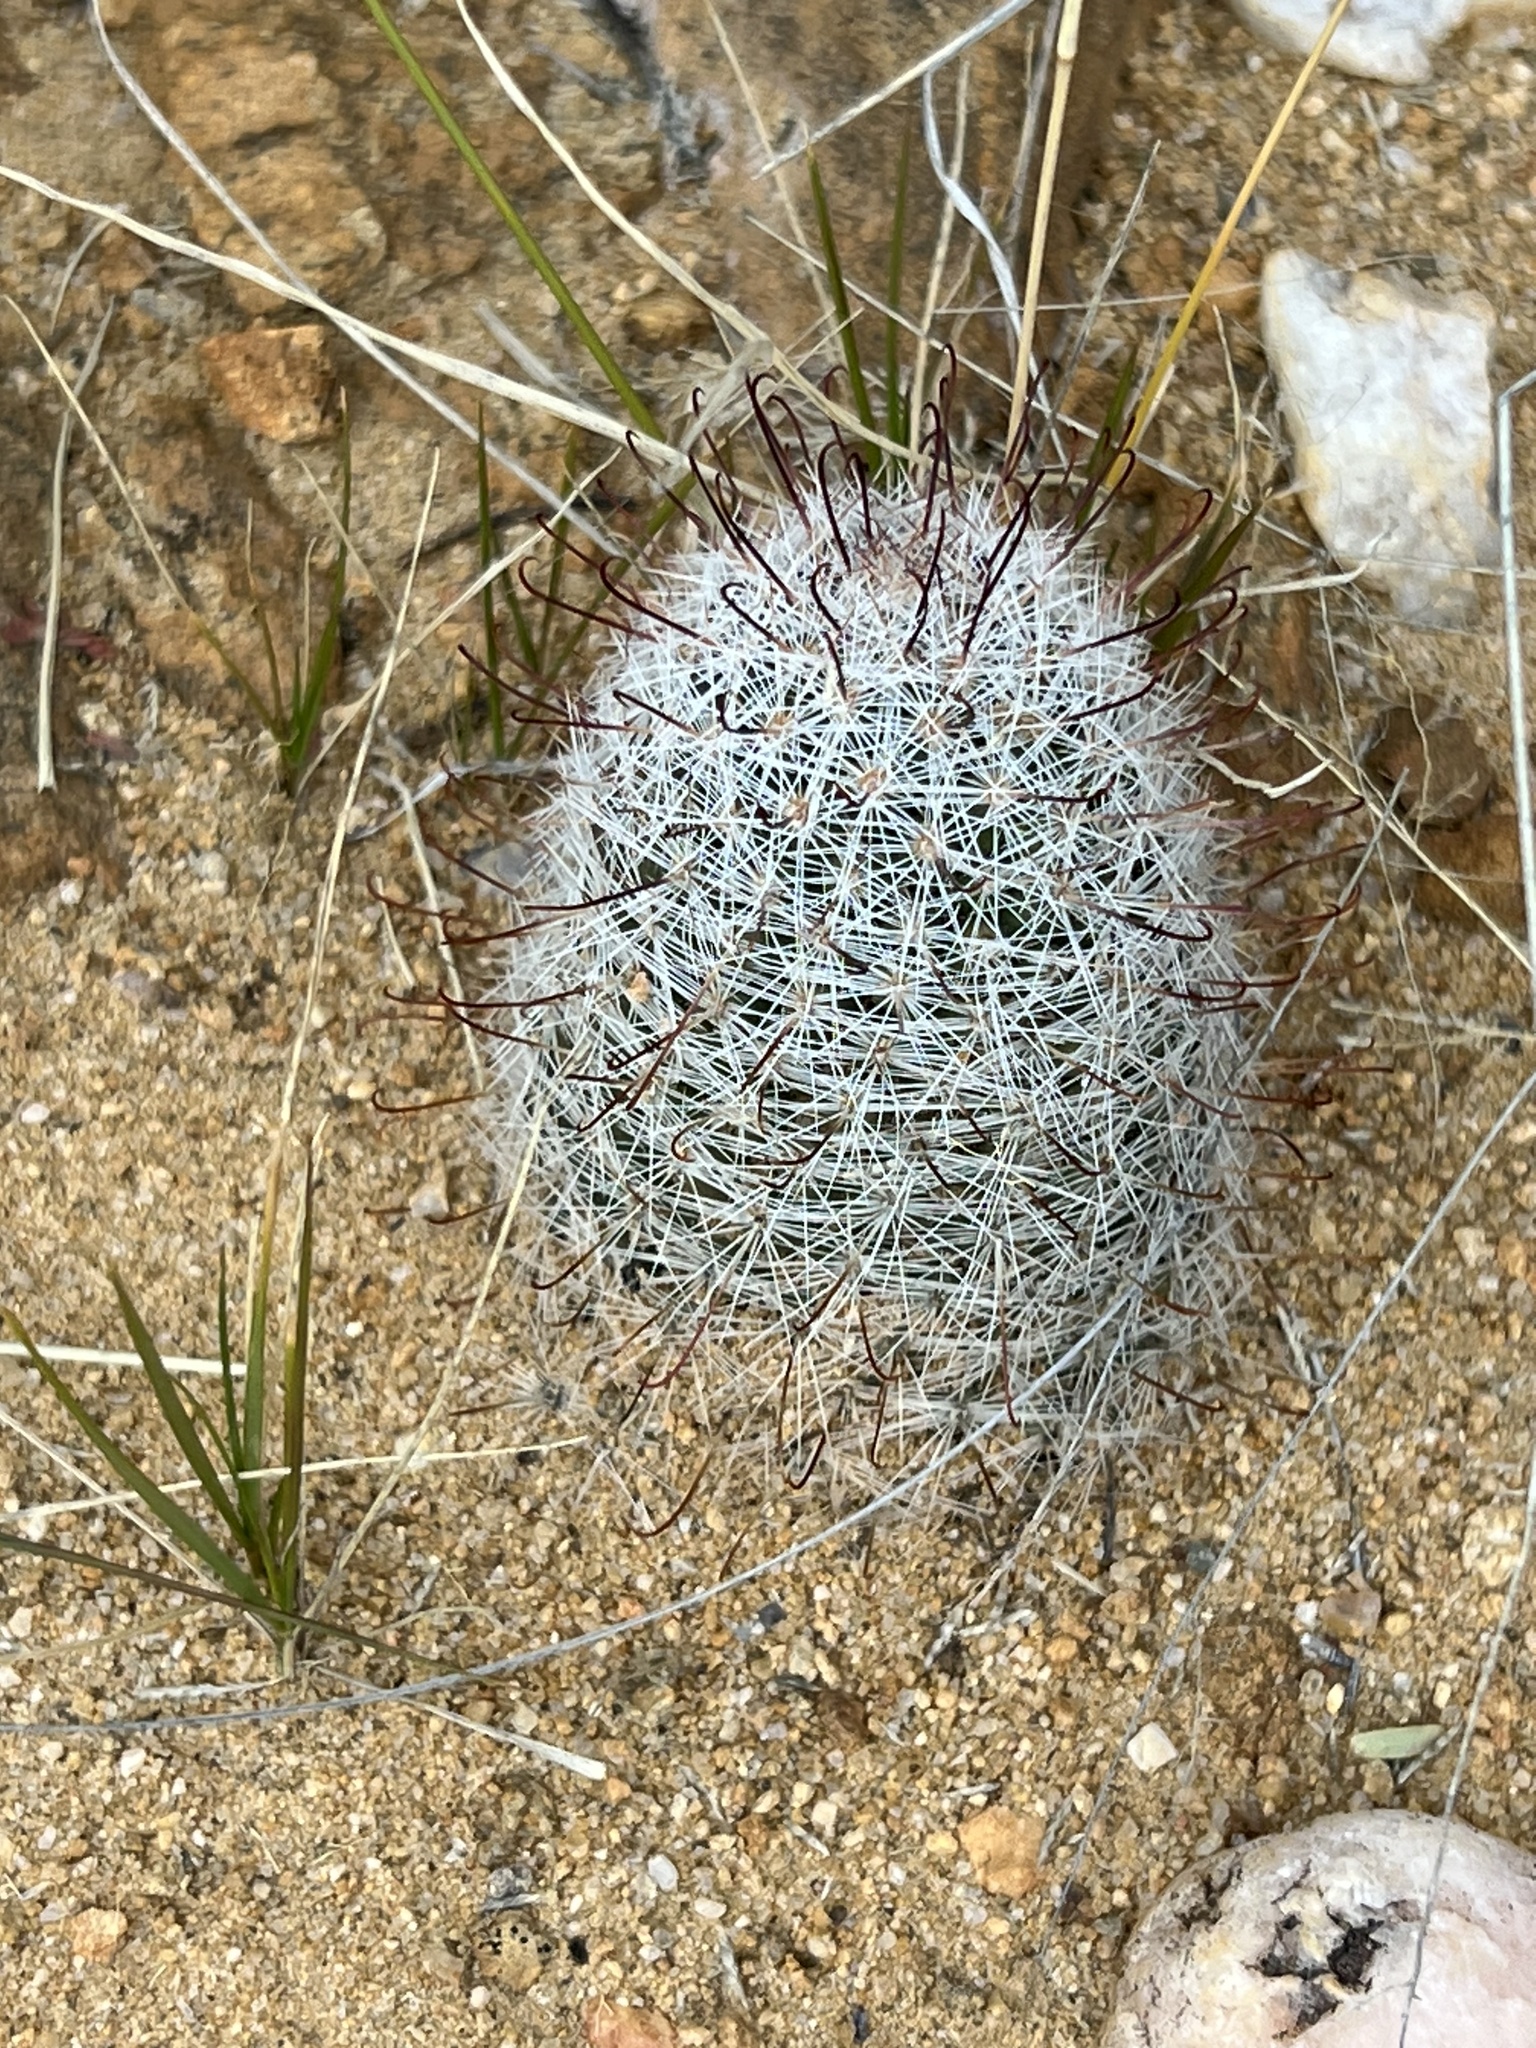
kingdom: Plantae
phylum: Tracheophyta
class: Magnoliopsida
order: Caryophyllales
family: Cactaceae
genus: Cochemiea
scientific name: Cochemiea grahamii
